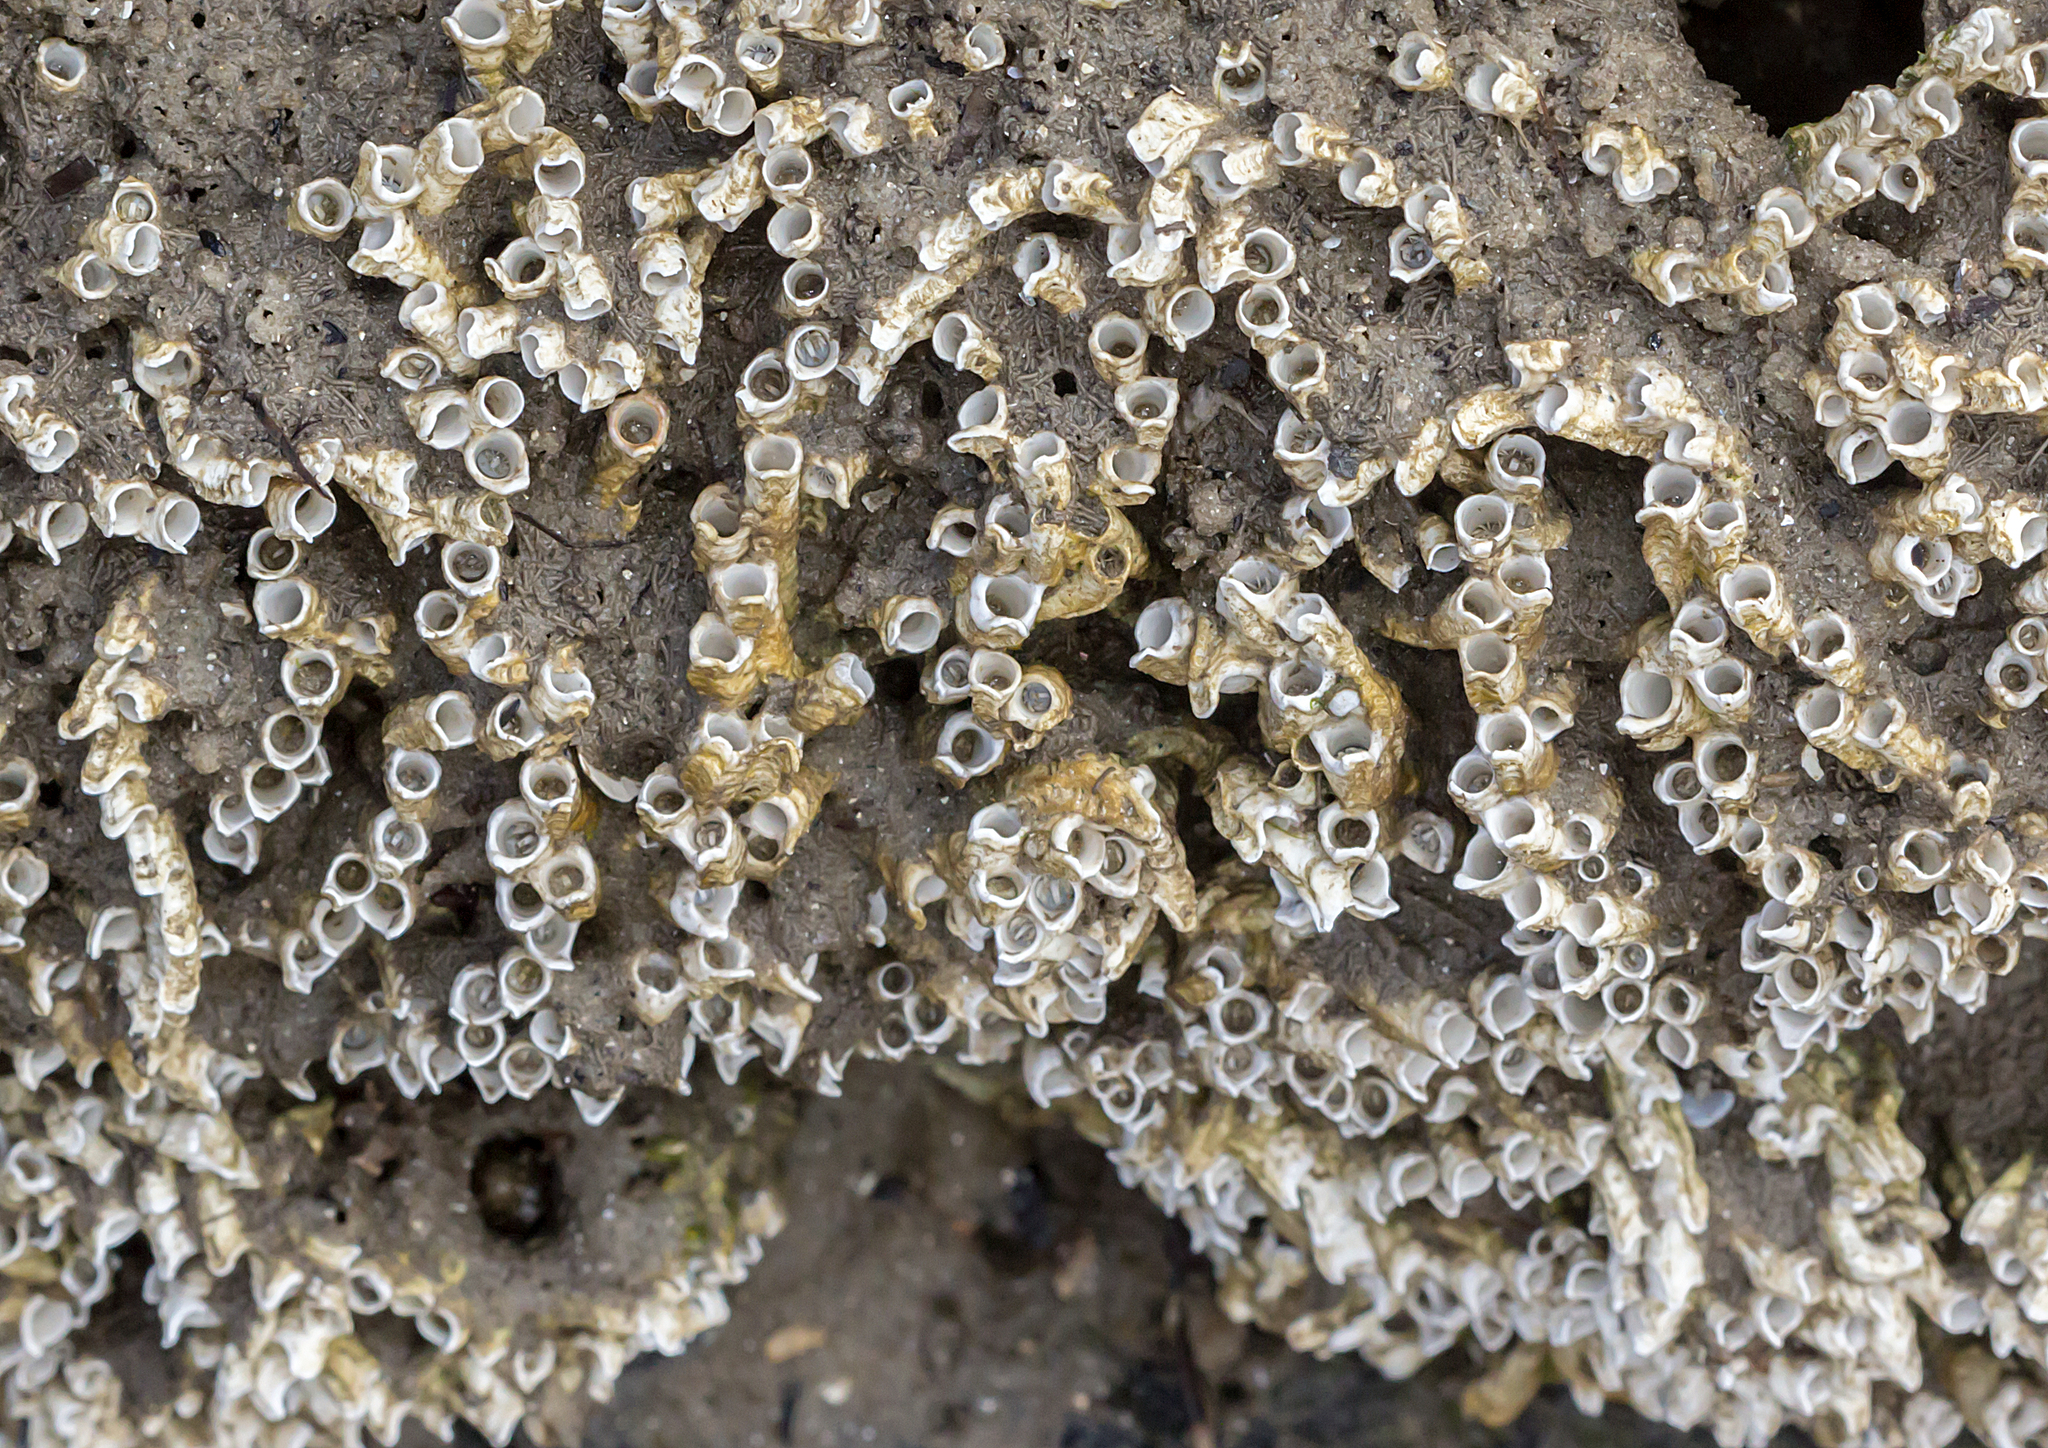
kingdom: Animalia
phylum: Annelida
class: Polychaeta
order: Sabellida
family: Serpulidae
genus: Galeolaria
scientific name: Galeolaria caespitosa
